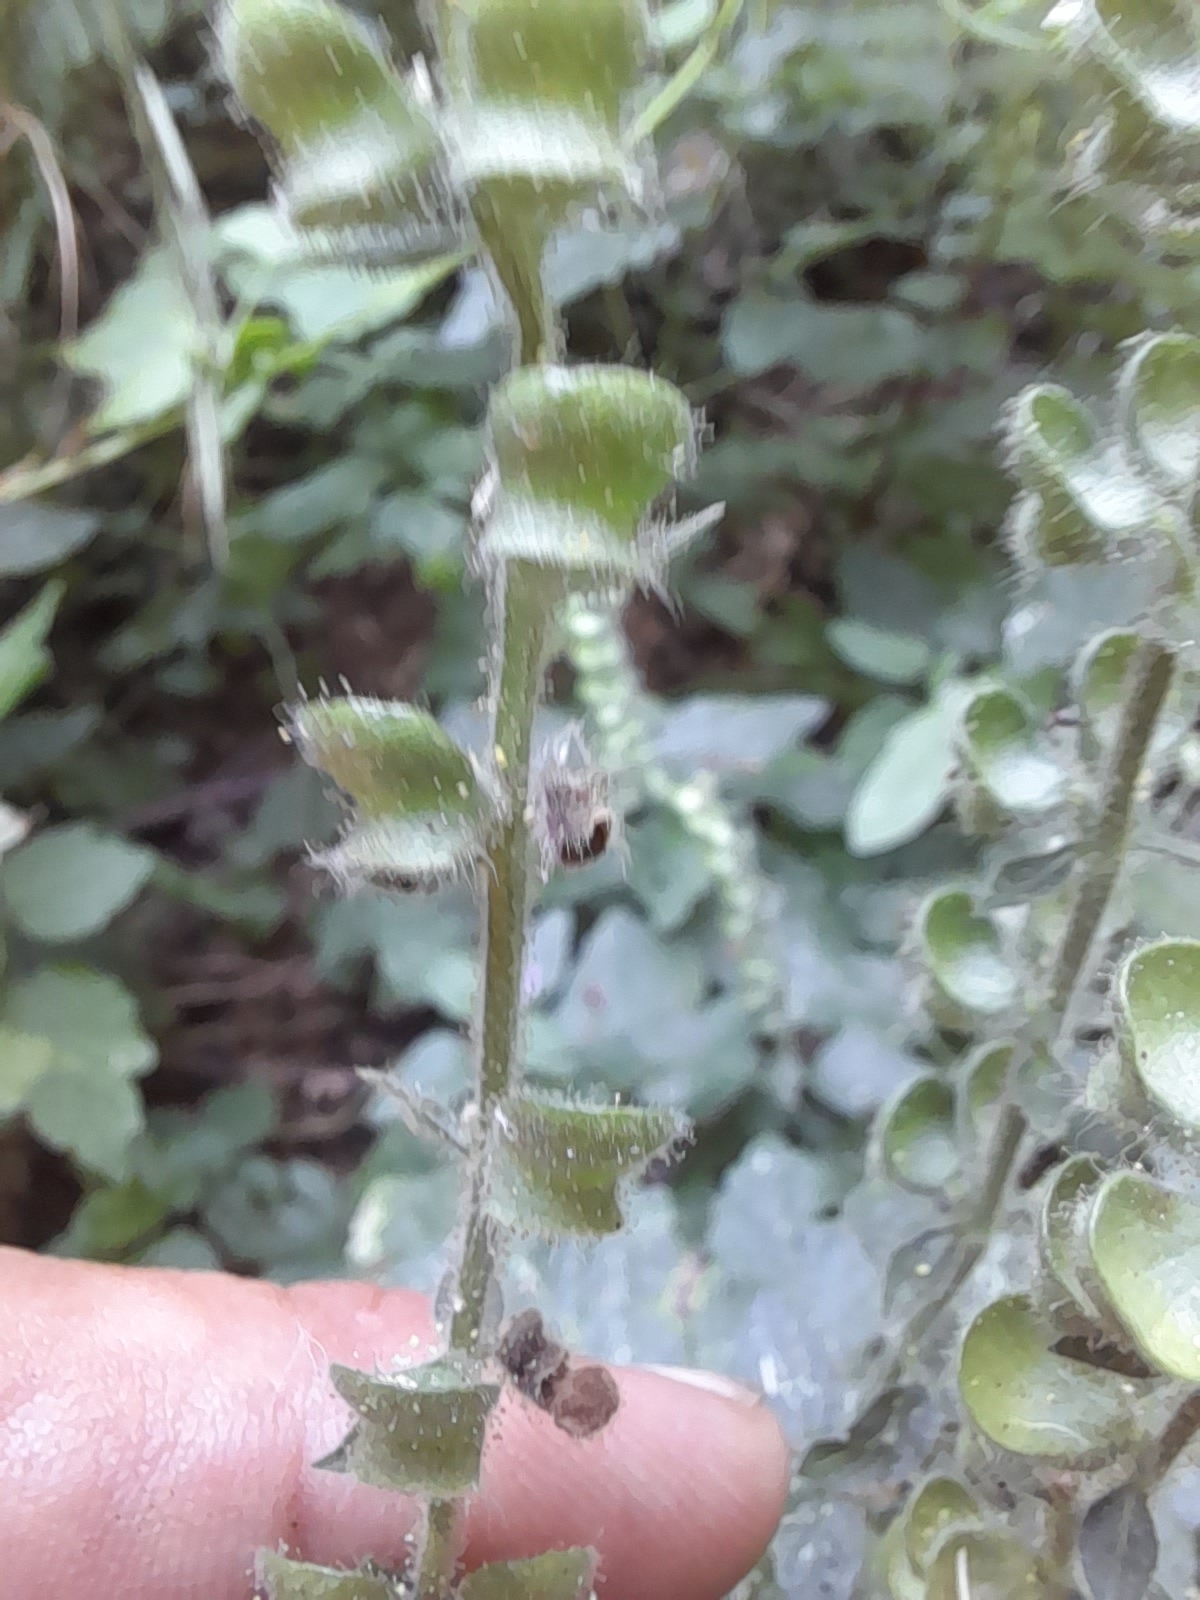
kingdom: Plantae
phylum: Tracheophyta
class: Magnoliopsida
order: Lamiales
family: Lamiaceae
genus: Scutellaria
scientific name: Scutellaria columnae
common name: Large skullcap
